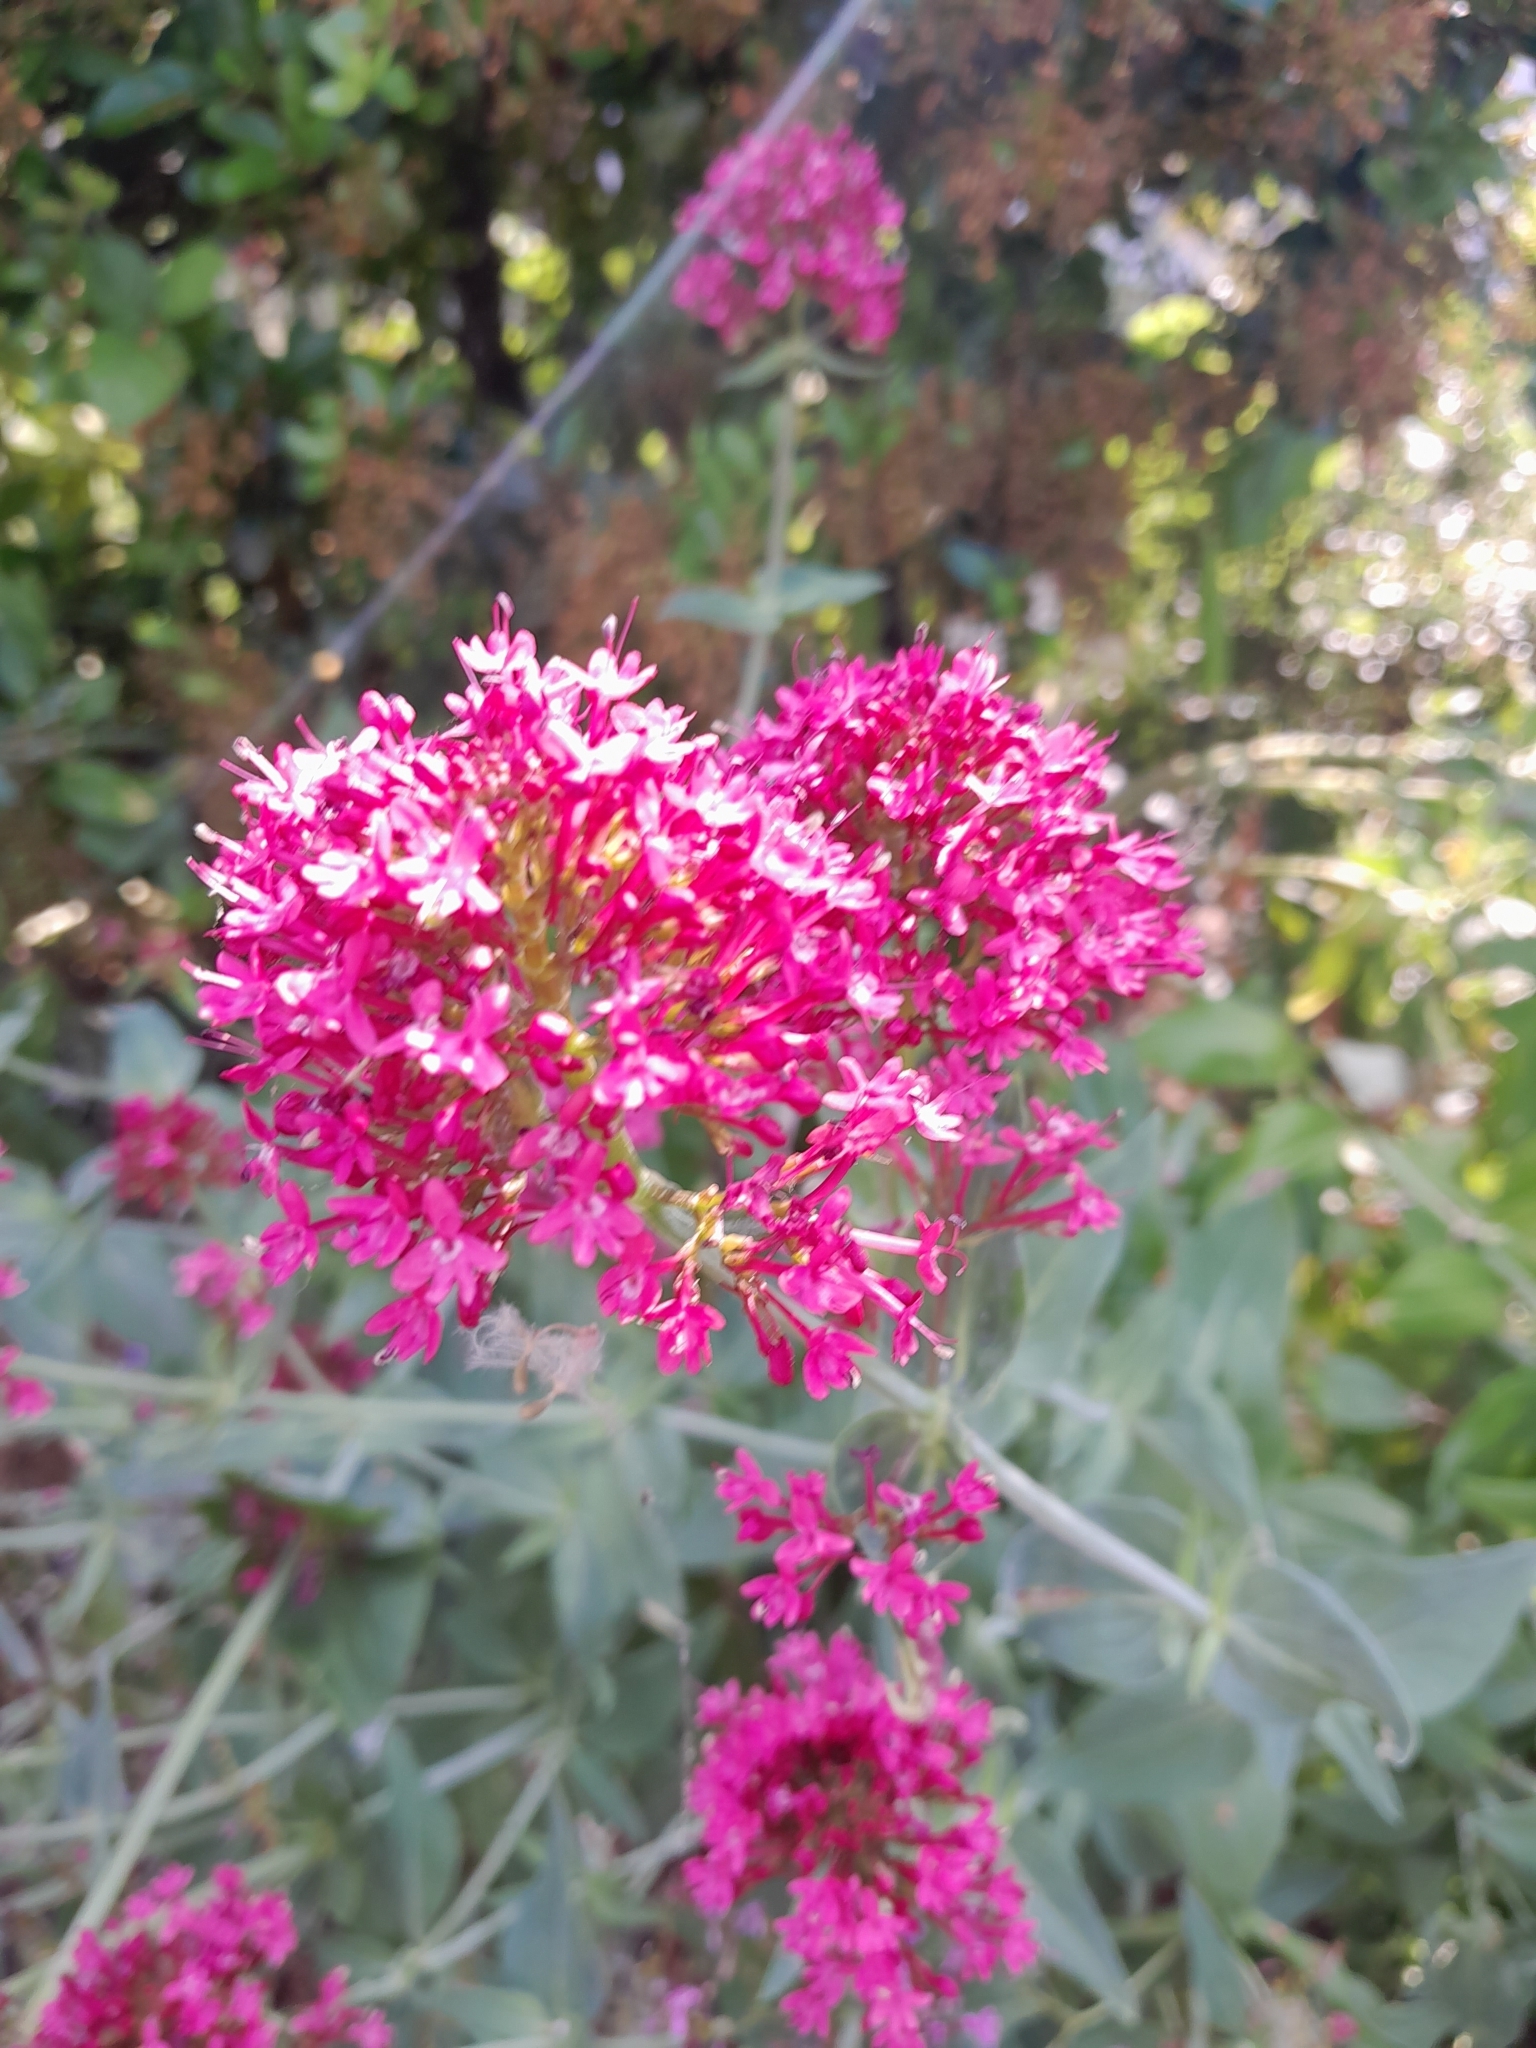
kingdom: Plantae
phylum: Tracheophyta
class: Magnoliopsida
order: Dipsacales
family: Caprifoliaceae
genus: Centranthus
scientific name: Centranthus ruber
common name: Red valerian
